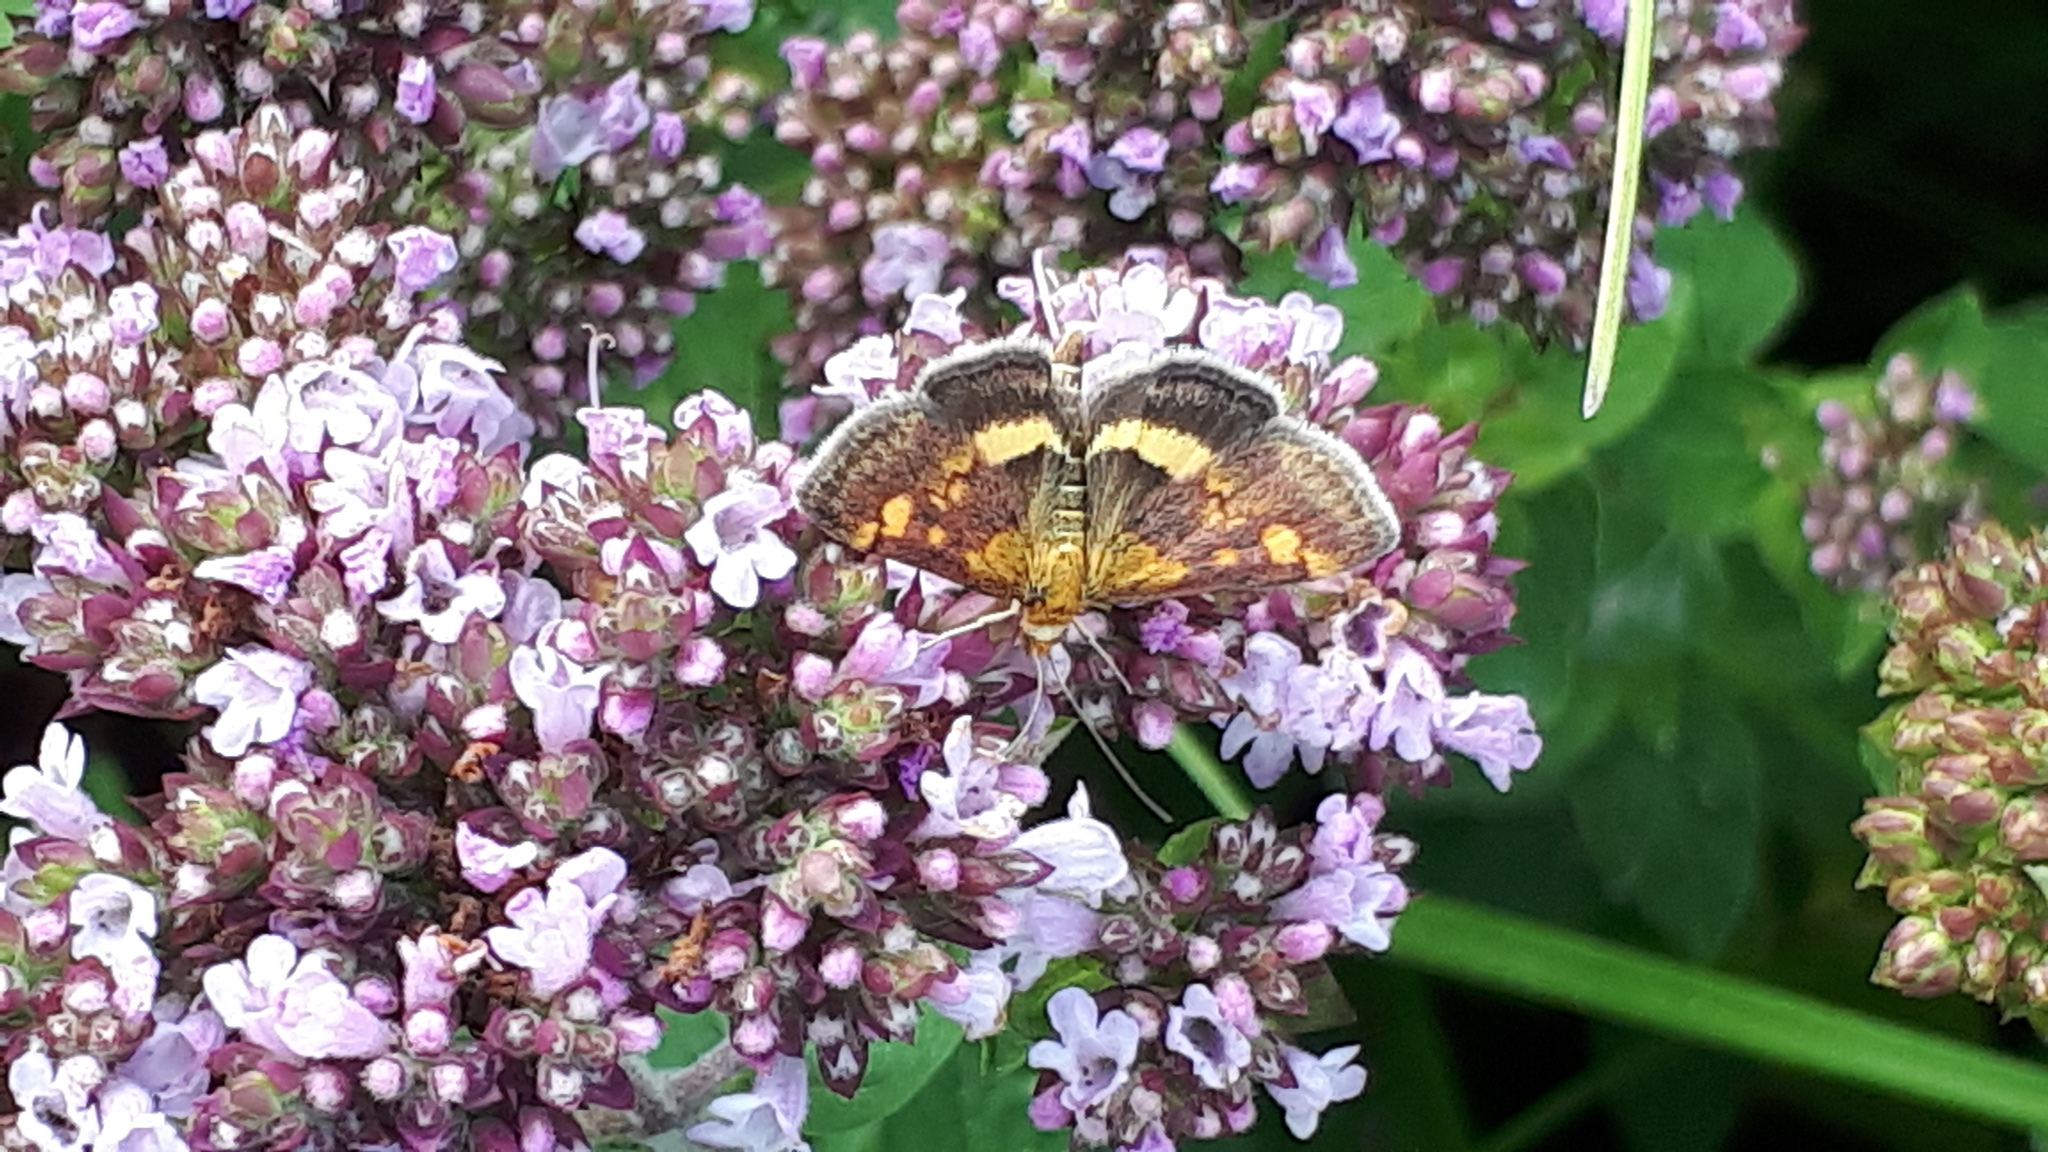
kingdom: Animalia
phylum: Arthropoda
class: Insecta
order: Lepidoptera
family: Crambidae
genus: Pyrausta
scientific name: Pyrausta aurata
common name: Small purple & gold
